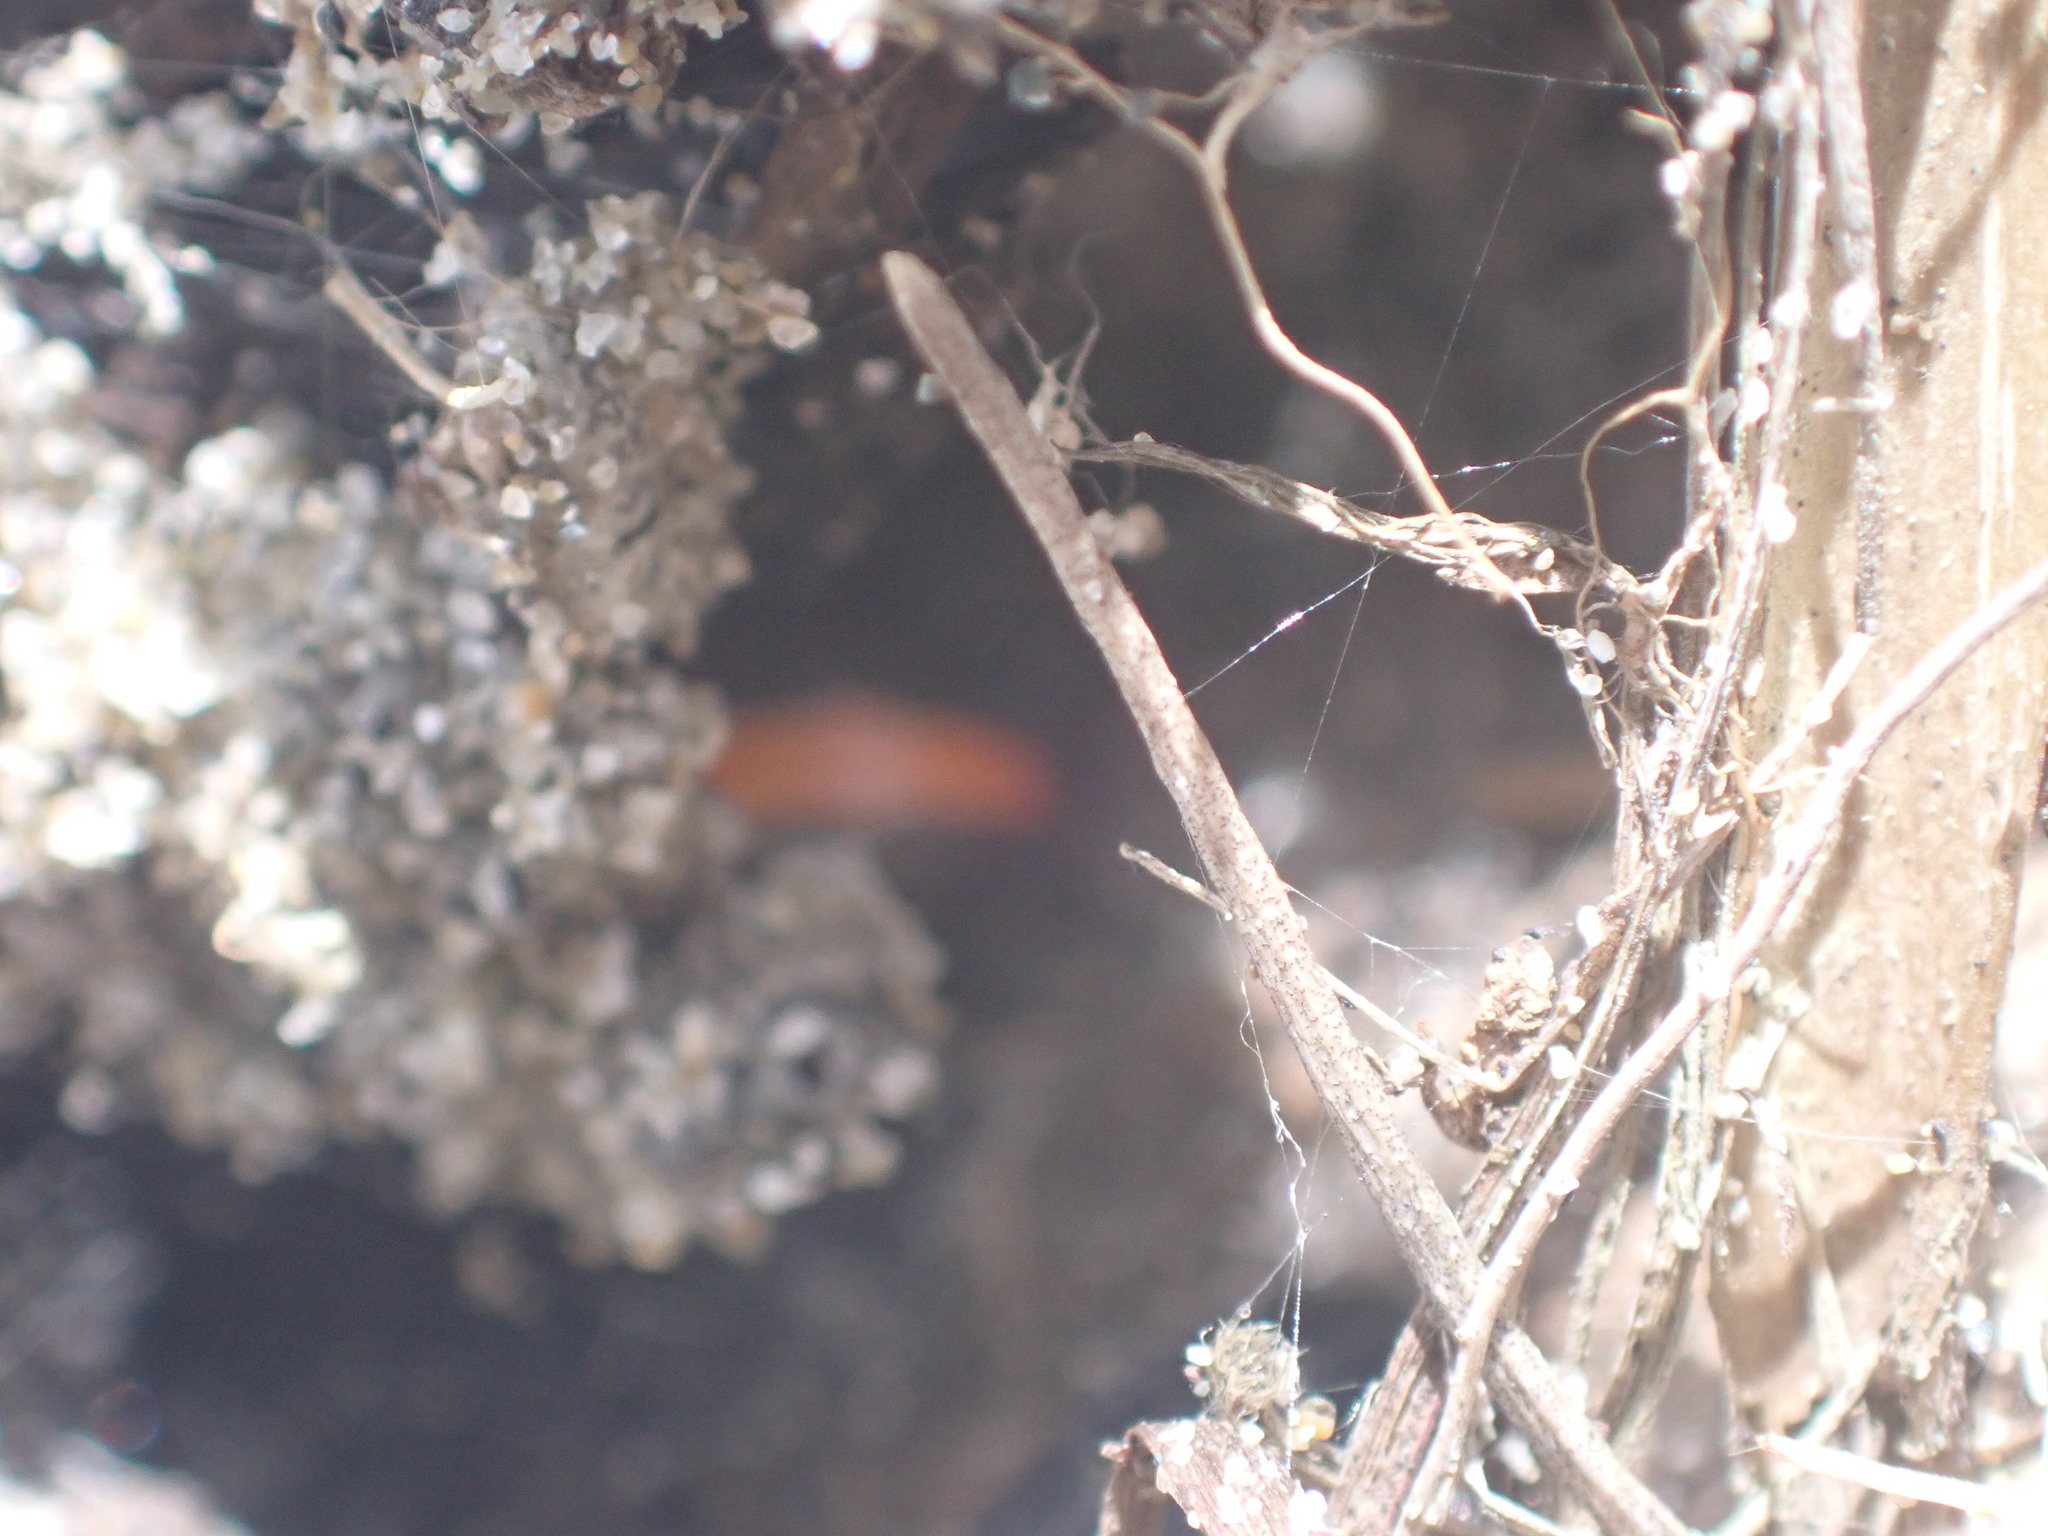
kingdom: Animalia
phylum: Arthropoda
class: Arachnida
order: Araneae
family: Theridiidae
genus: Latrodectus
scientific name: Latrodectus katipo
